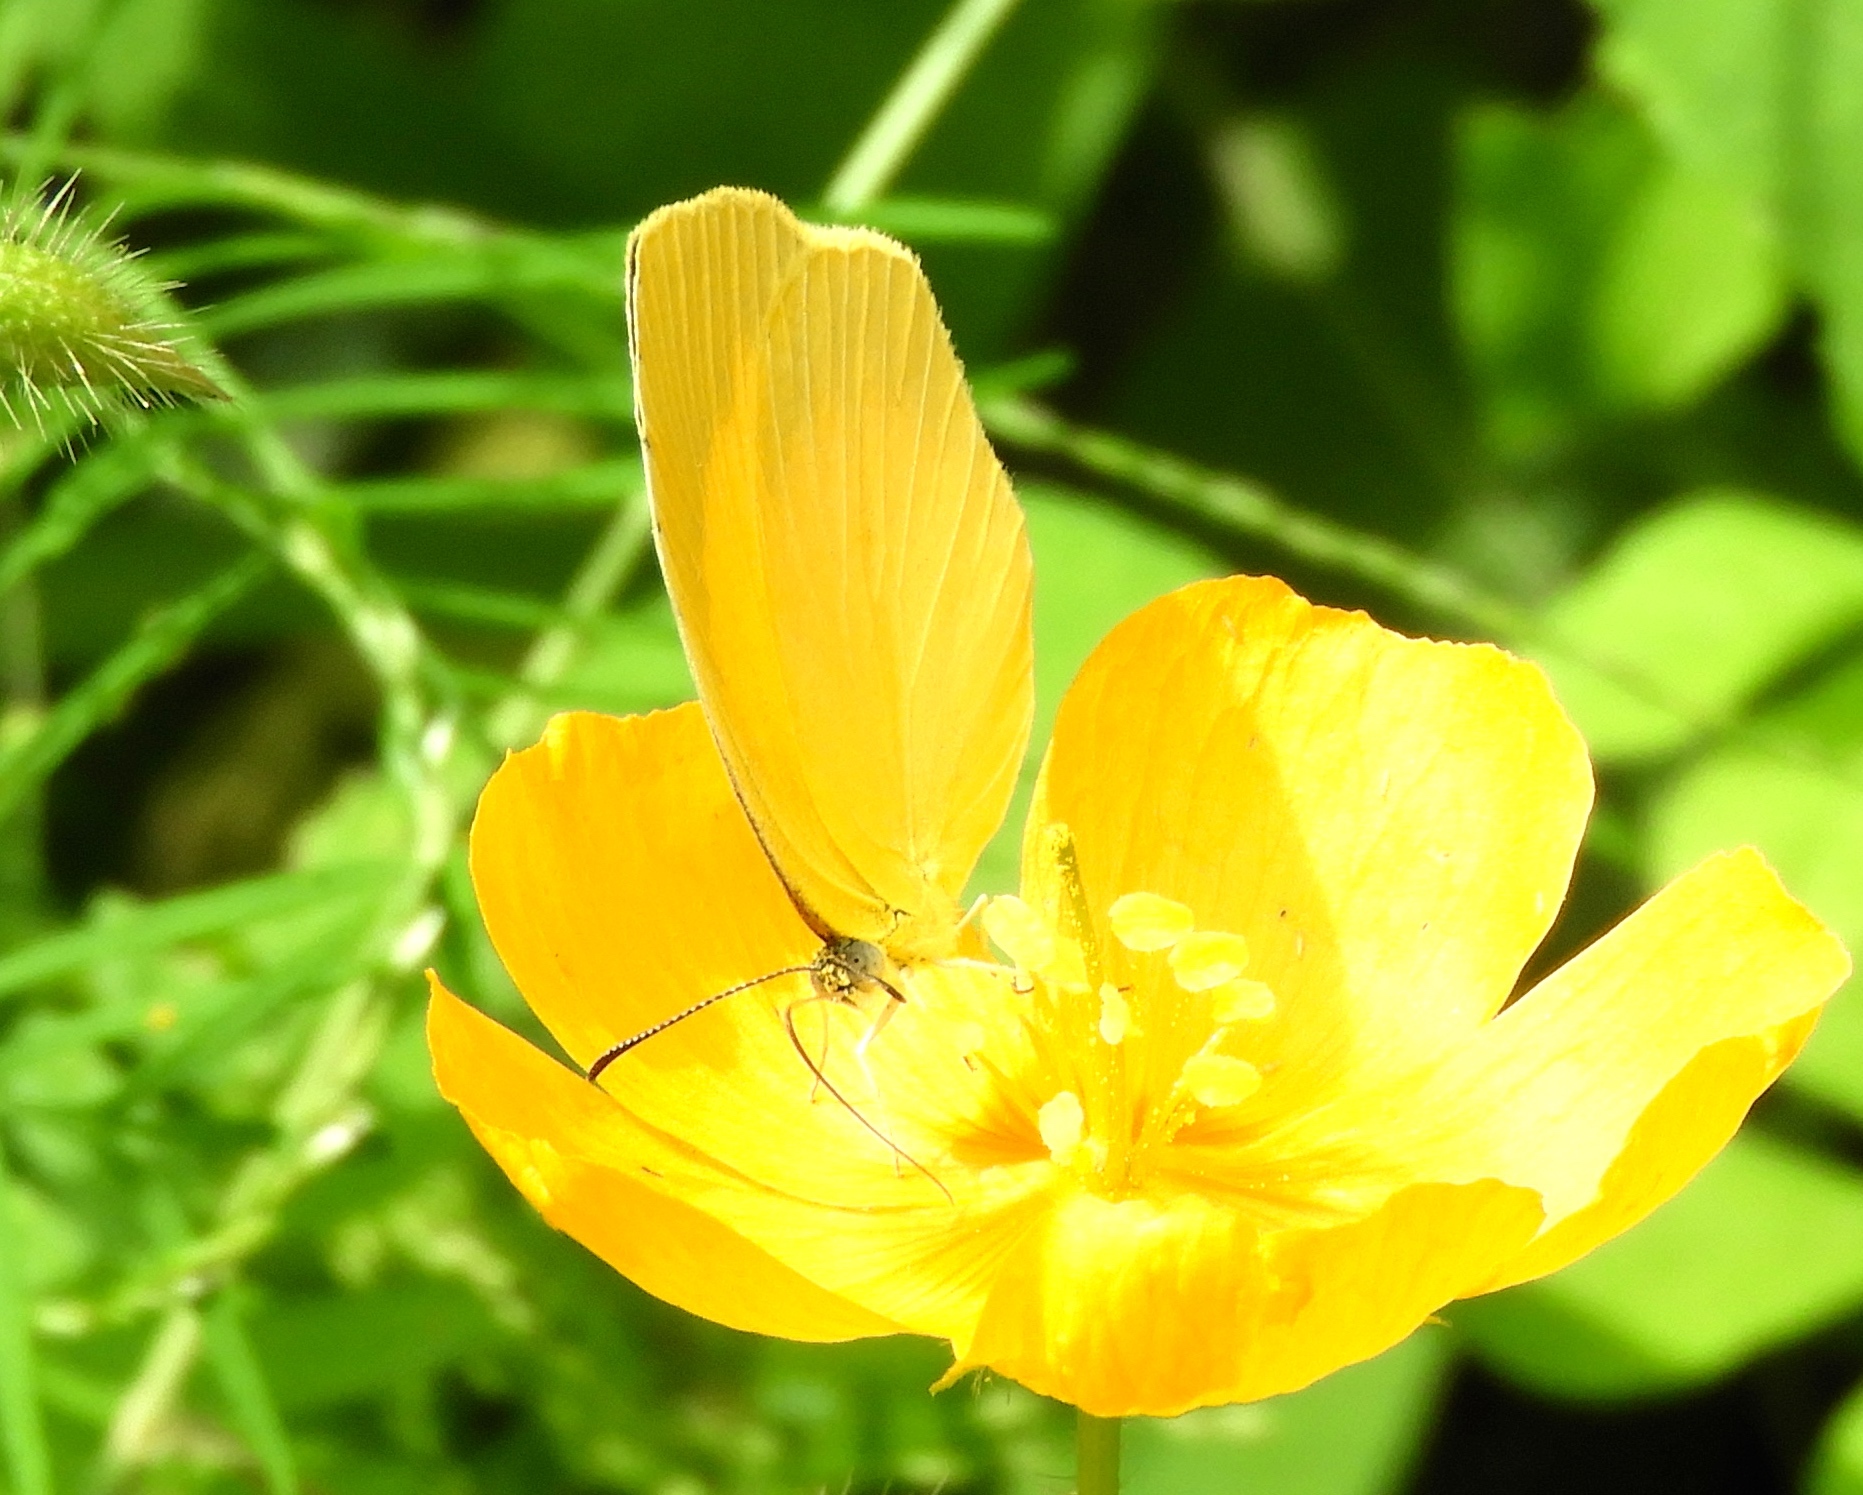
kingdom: Animalia
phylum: Arthropoda
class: Insecta
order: Lepidoptera
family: Pieridae
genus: Pyrisitia
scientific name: Pyrisitia proterpia
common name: Tailed orange
